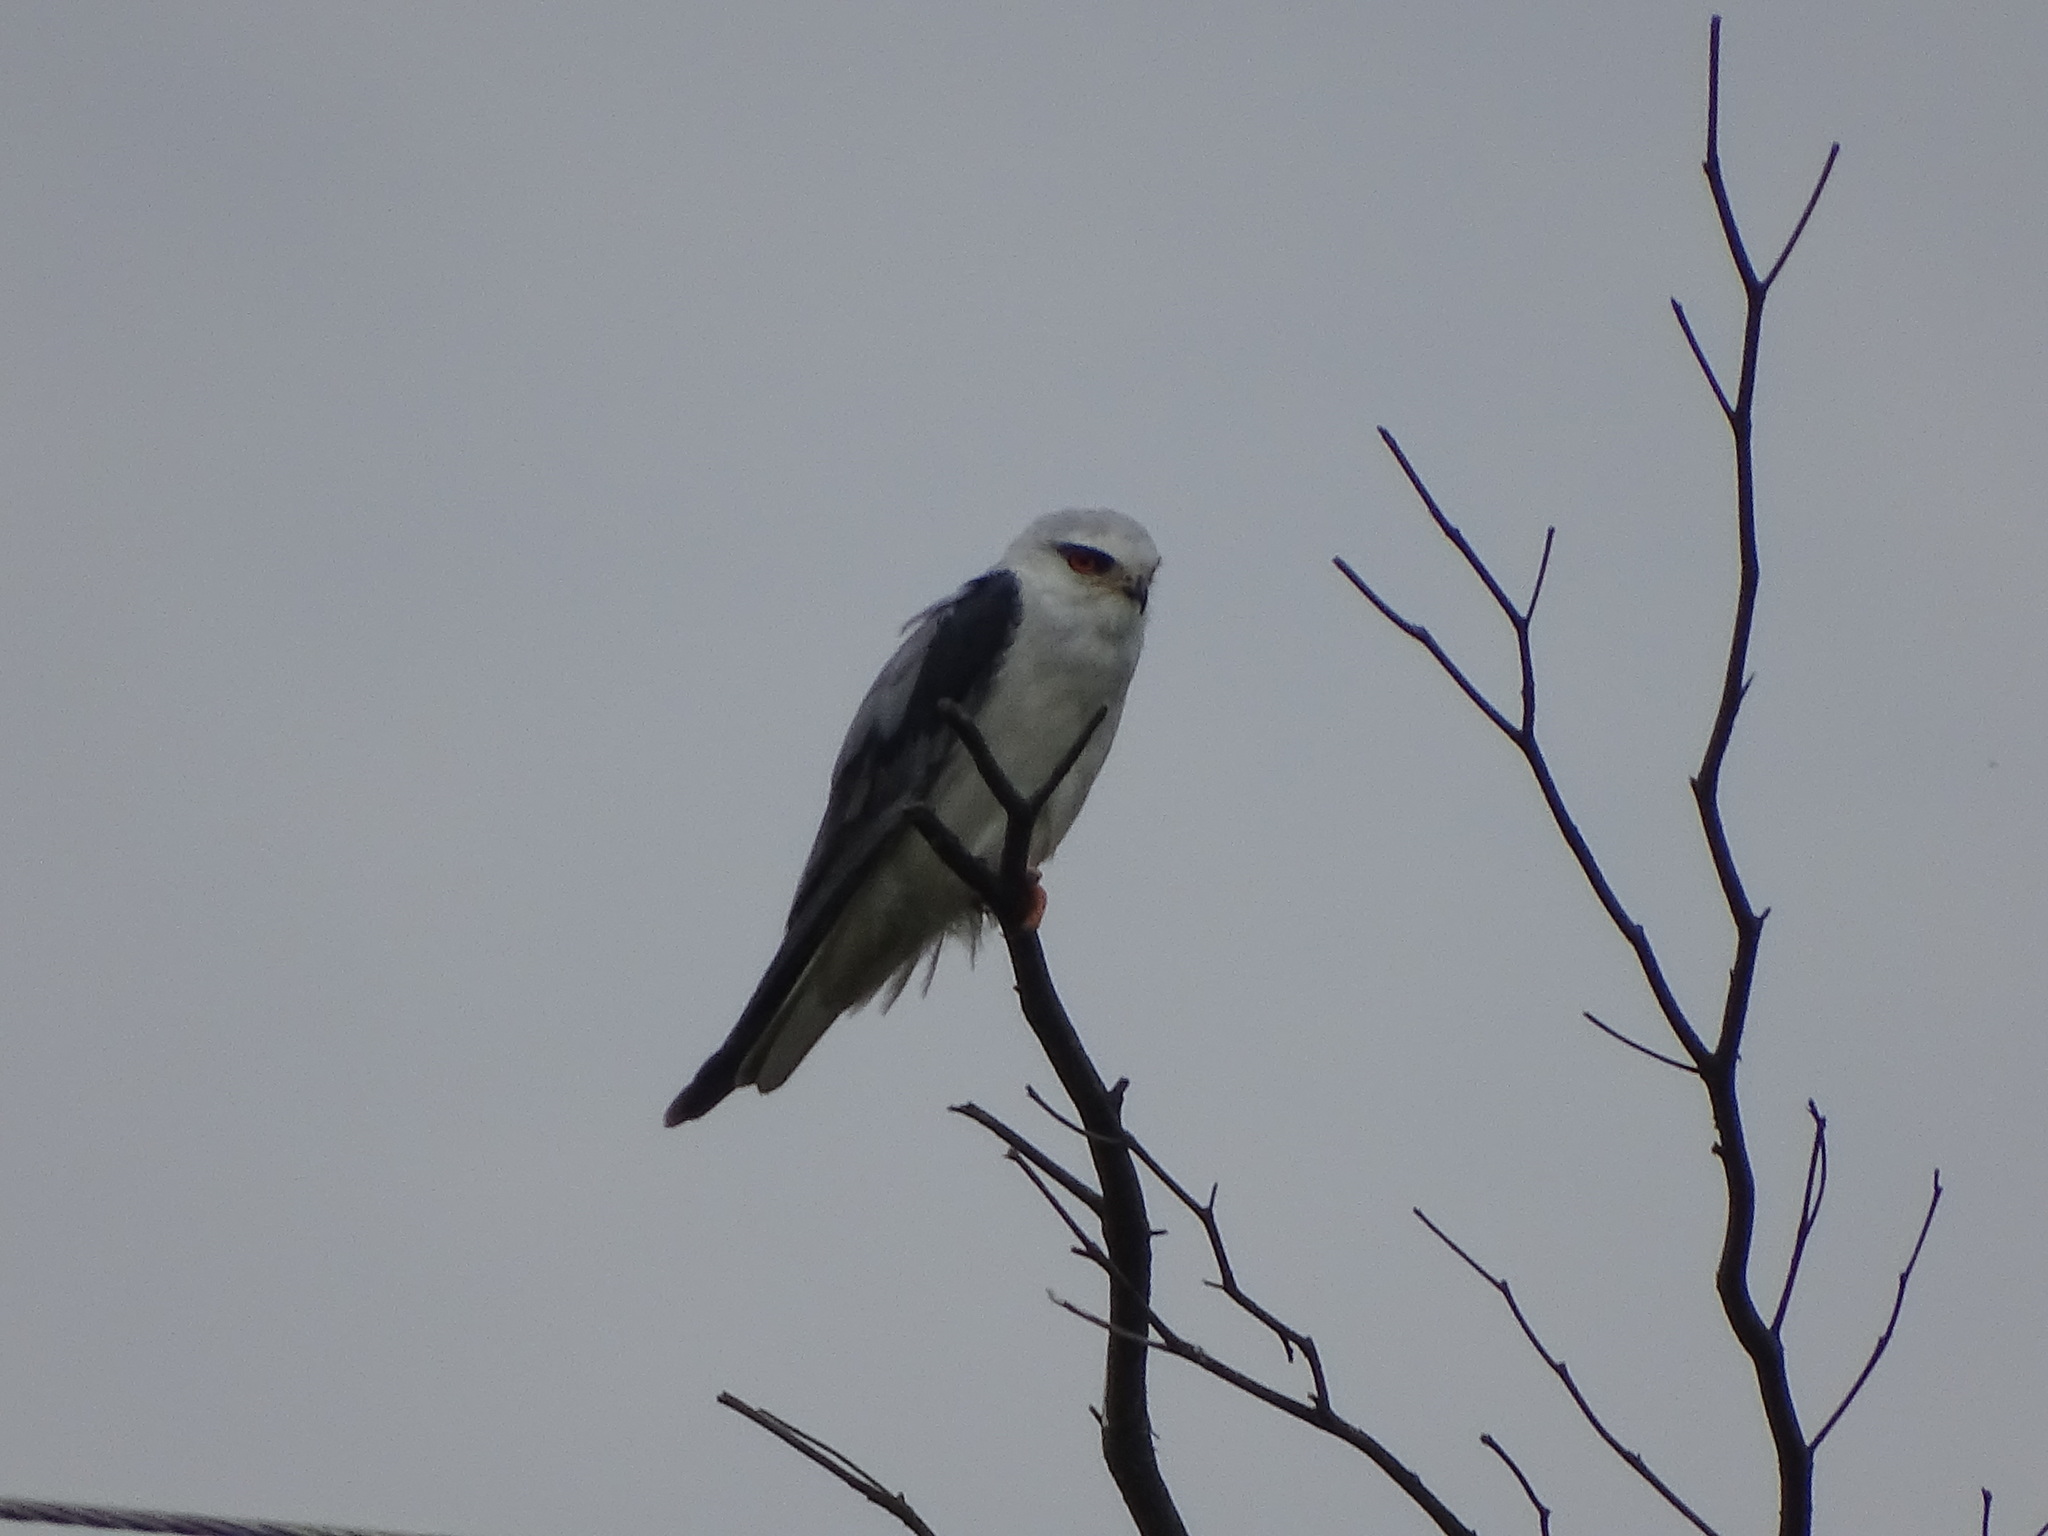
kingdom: Animalia
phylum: Chordata
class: Aves
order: Accipitriformes
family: Accipitridae
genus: Elanus
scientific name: Elanus caeruleus
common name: Black-winged kite
